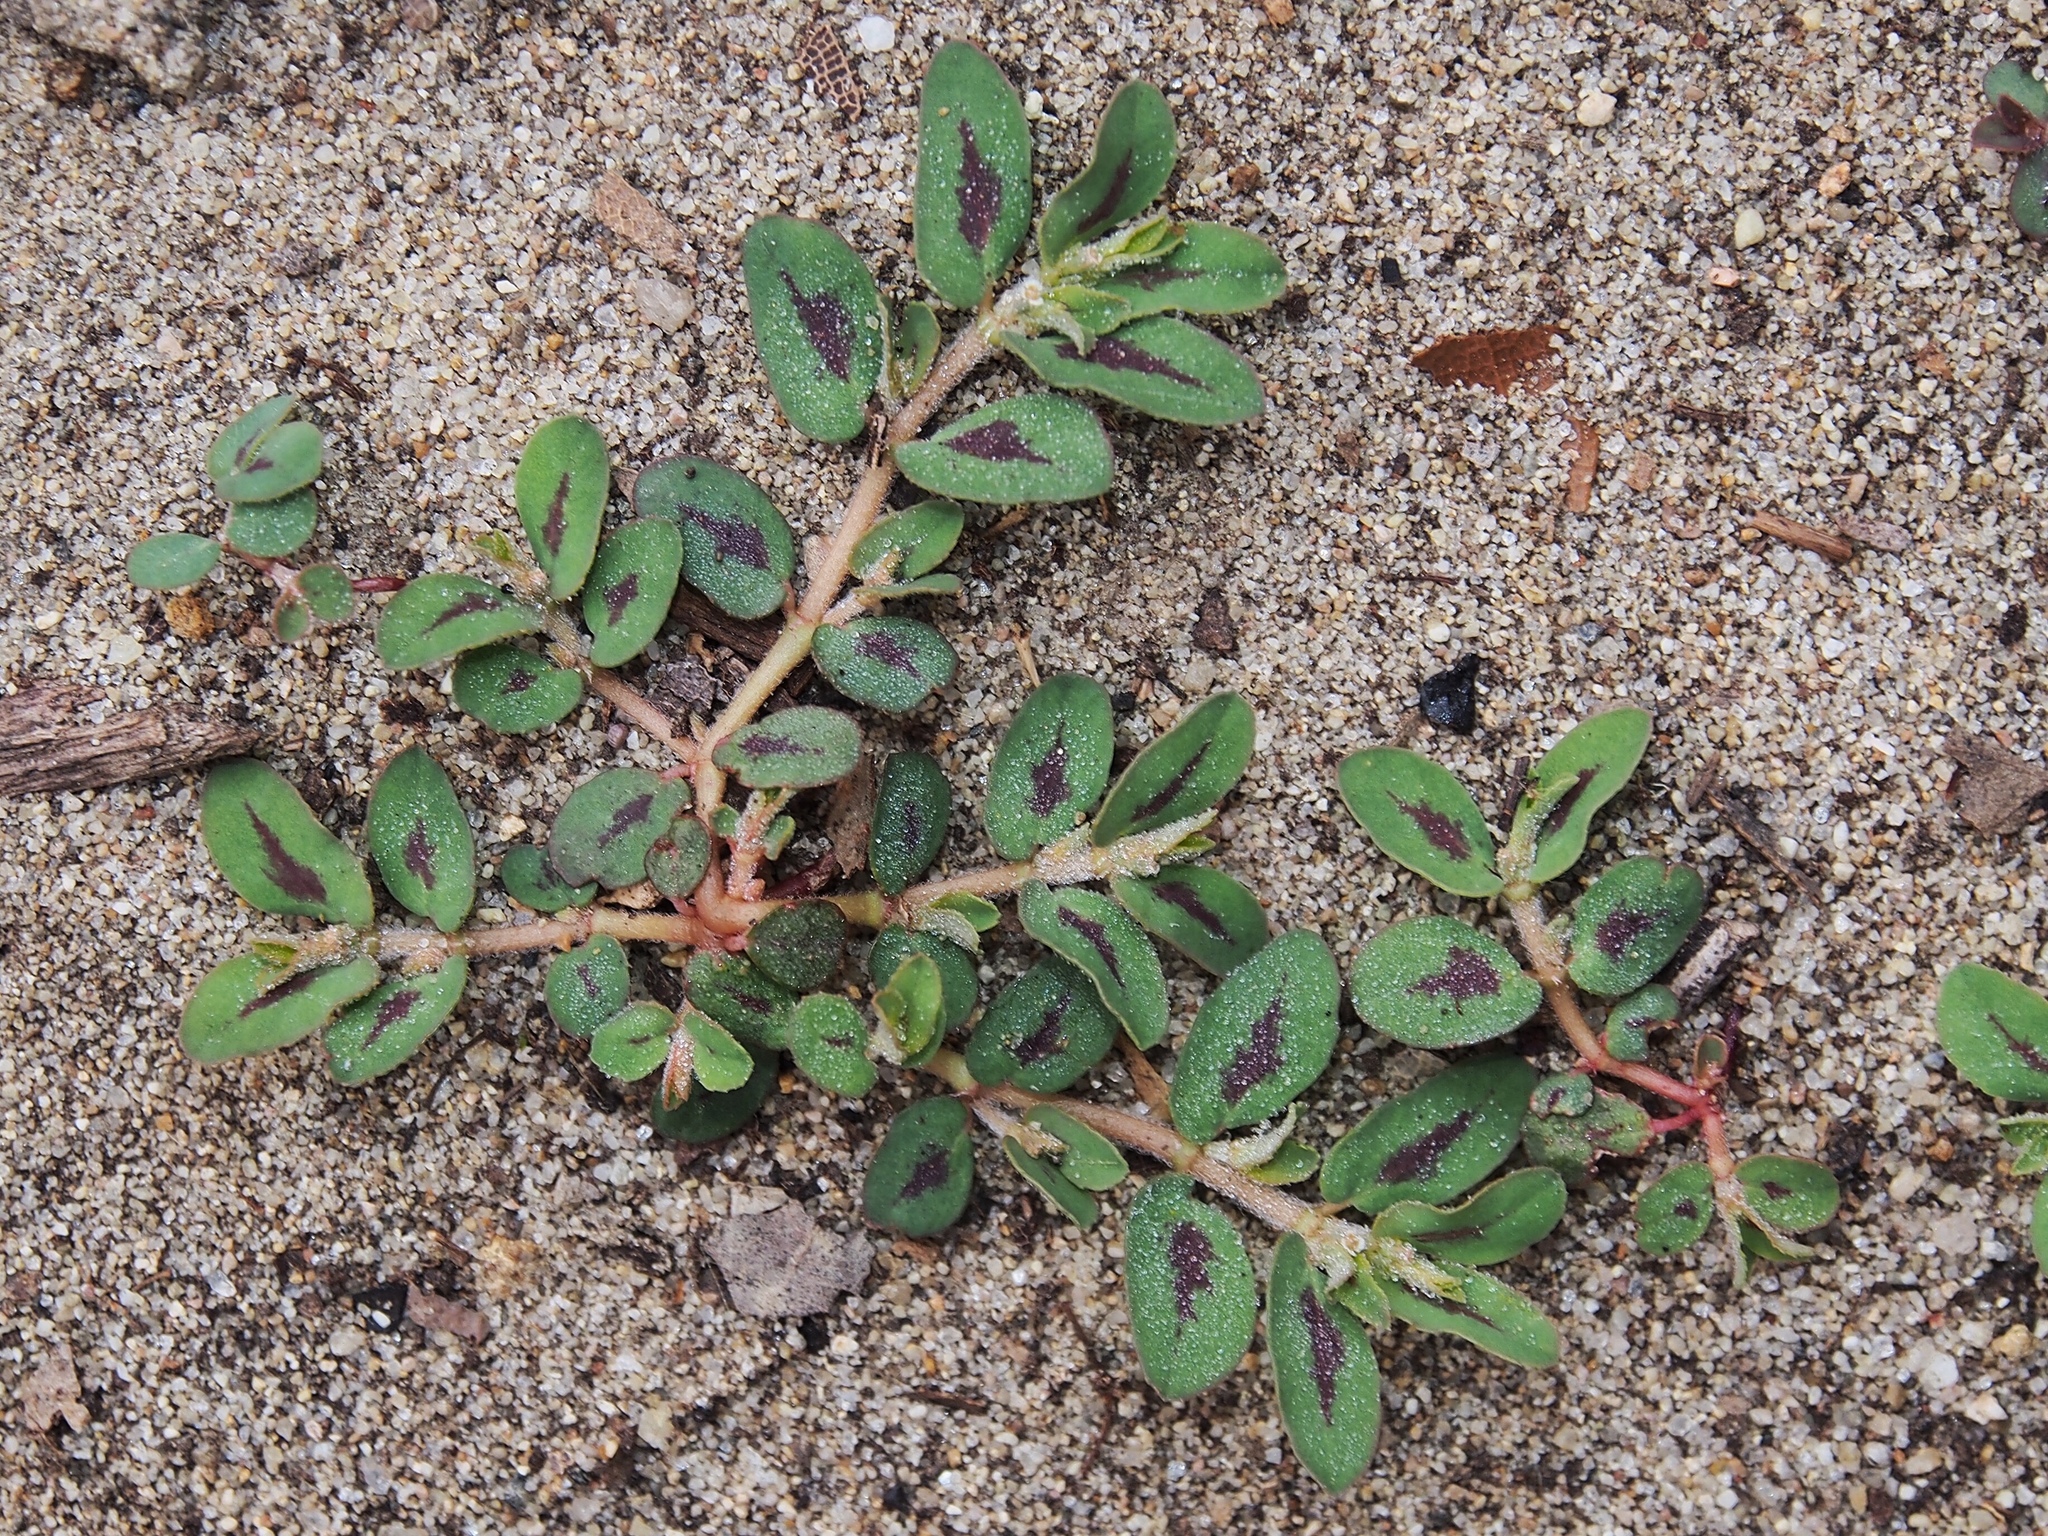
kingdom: Plantae
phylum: Tracheophyta
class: Magnoliopsida
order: Malpighiales
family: Euphorbiaceae
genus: Euphorbia
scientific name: Euphorbia maculata
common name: Spotted spurge
